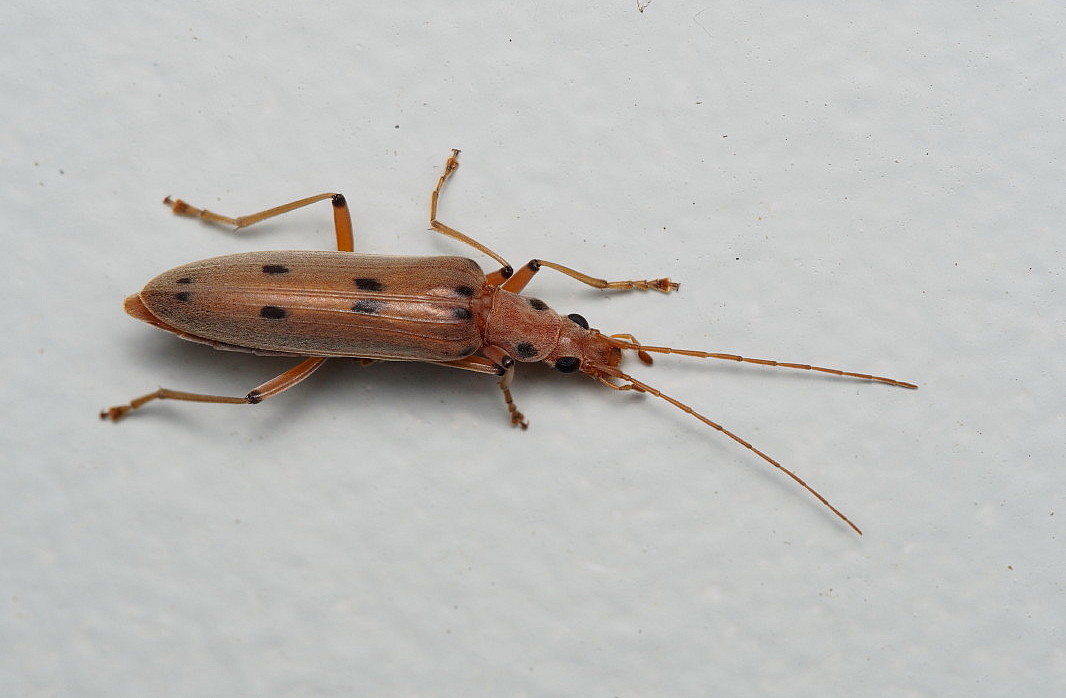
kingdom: Animalia
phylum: Arthropoda
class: Insecta
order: Coleoptera
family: Oedemeridae
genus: Parisopalpus
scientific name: Parisopalpus
